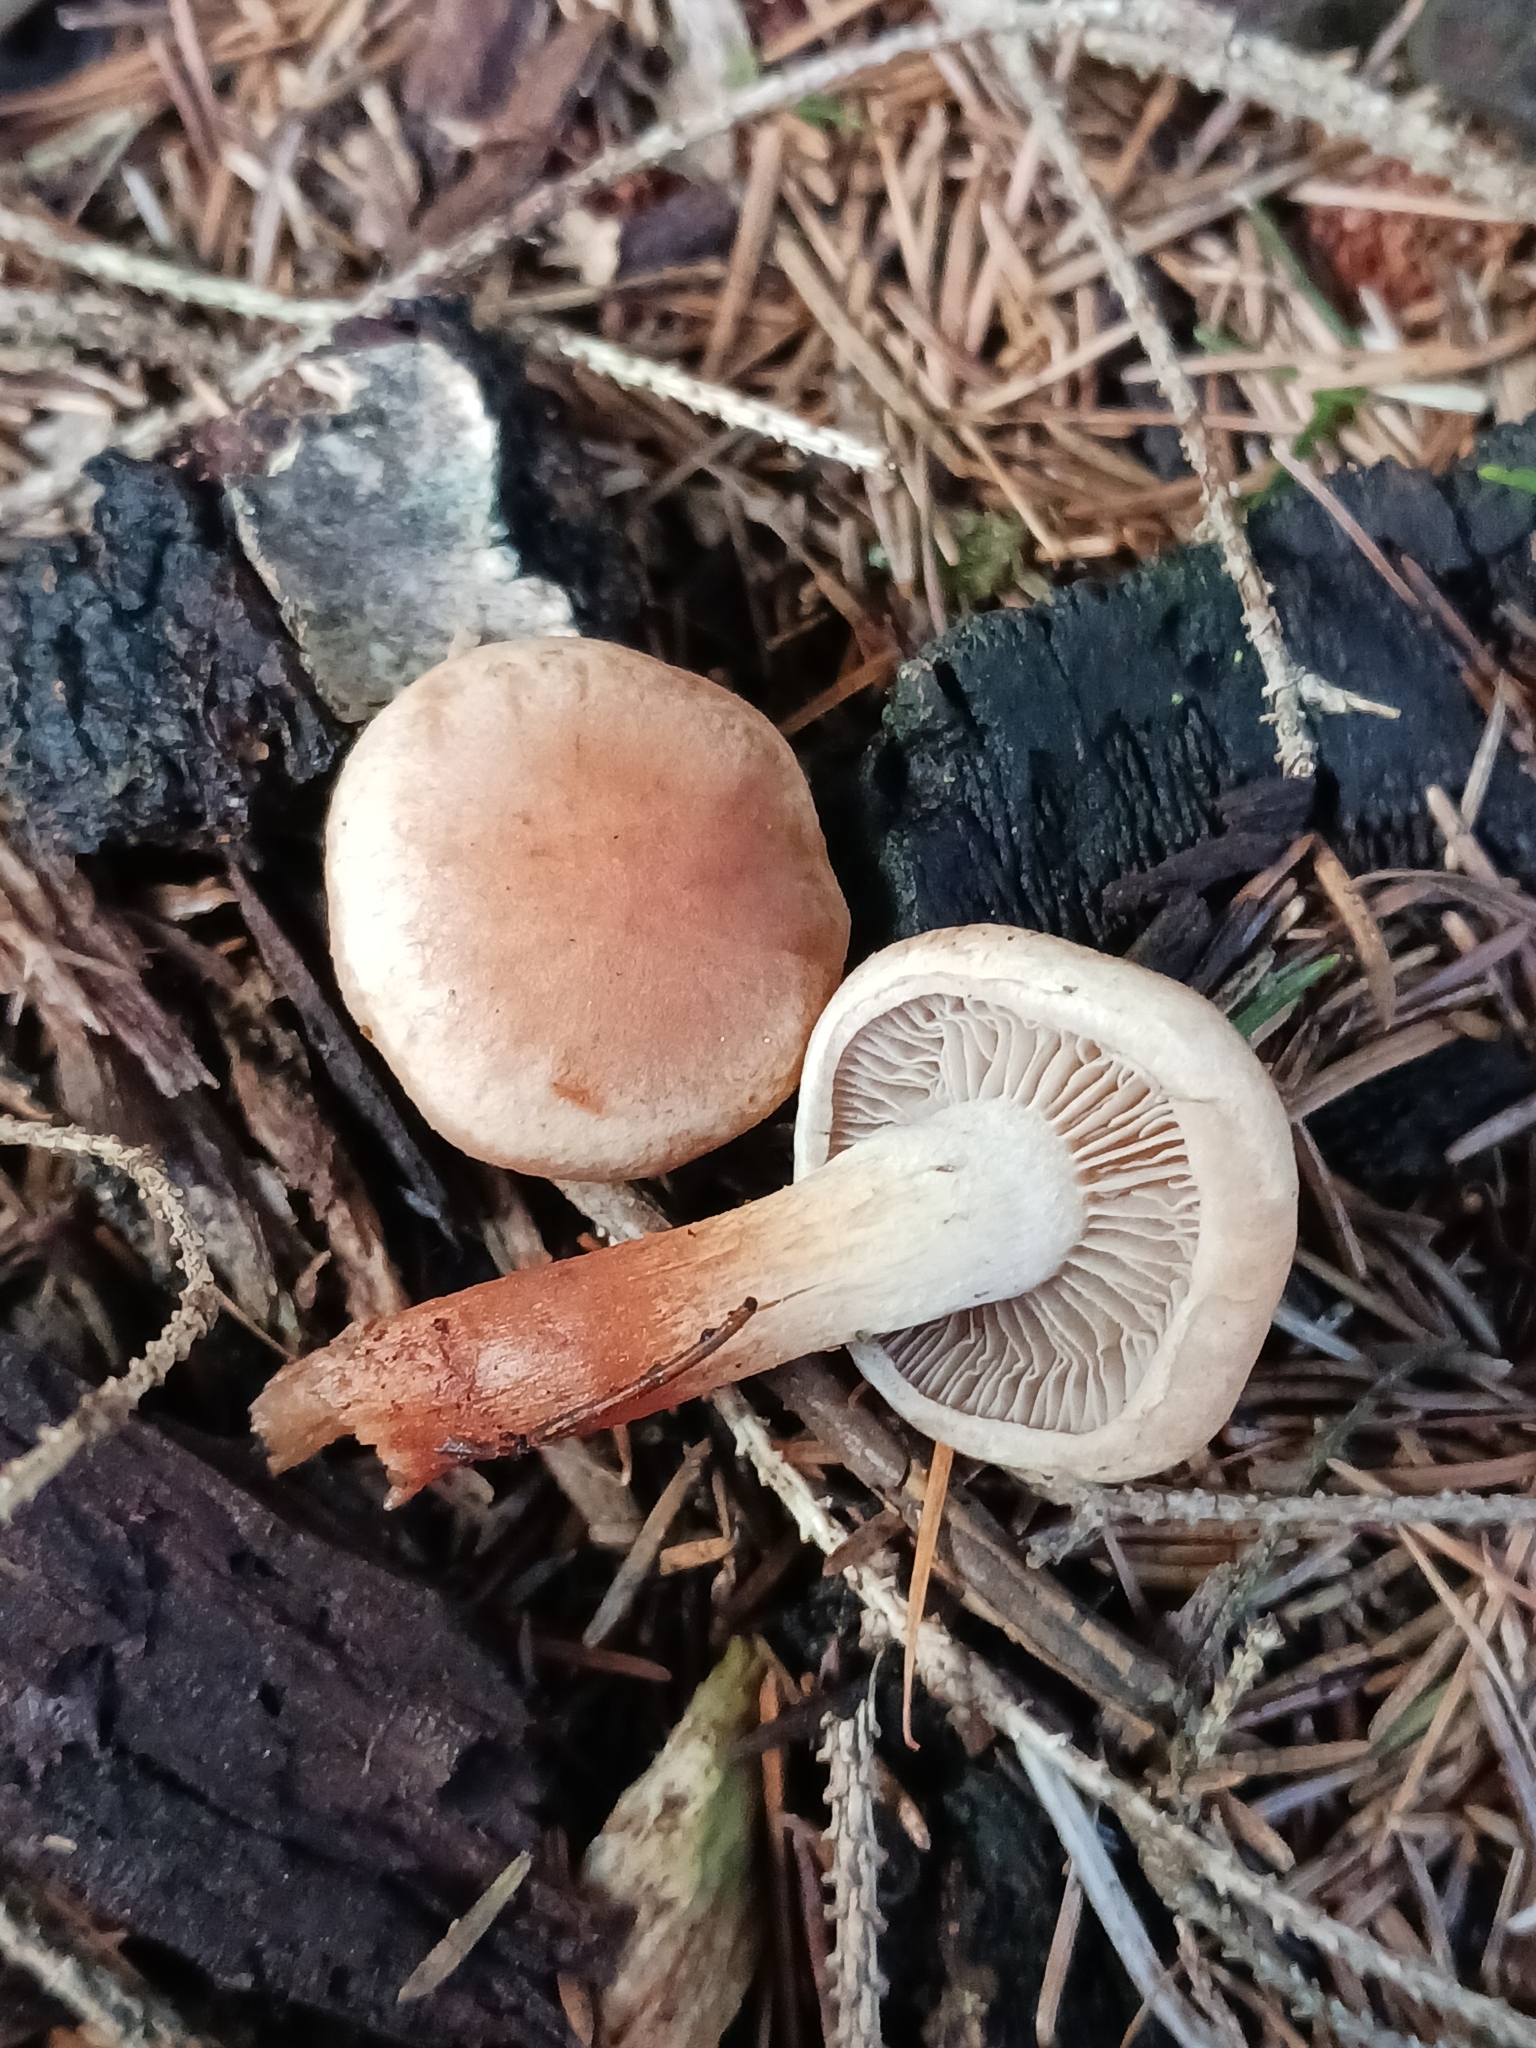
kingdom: Fungi
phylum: Basidiomycota
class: Agaricomycetes
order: Agaricales
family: Strophariaceae
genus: Hypholoma
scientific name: Hypholoma radicosum
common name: Rooting brownie
